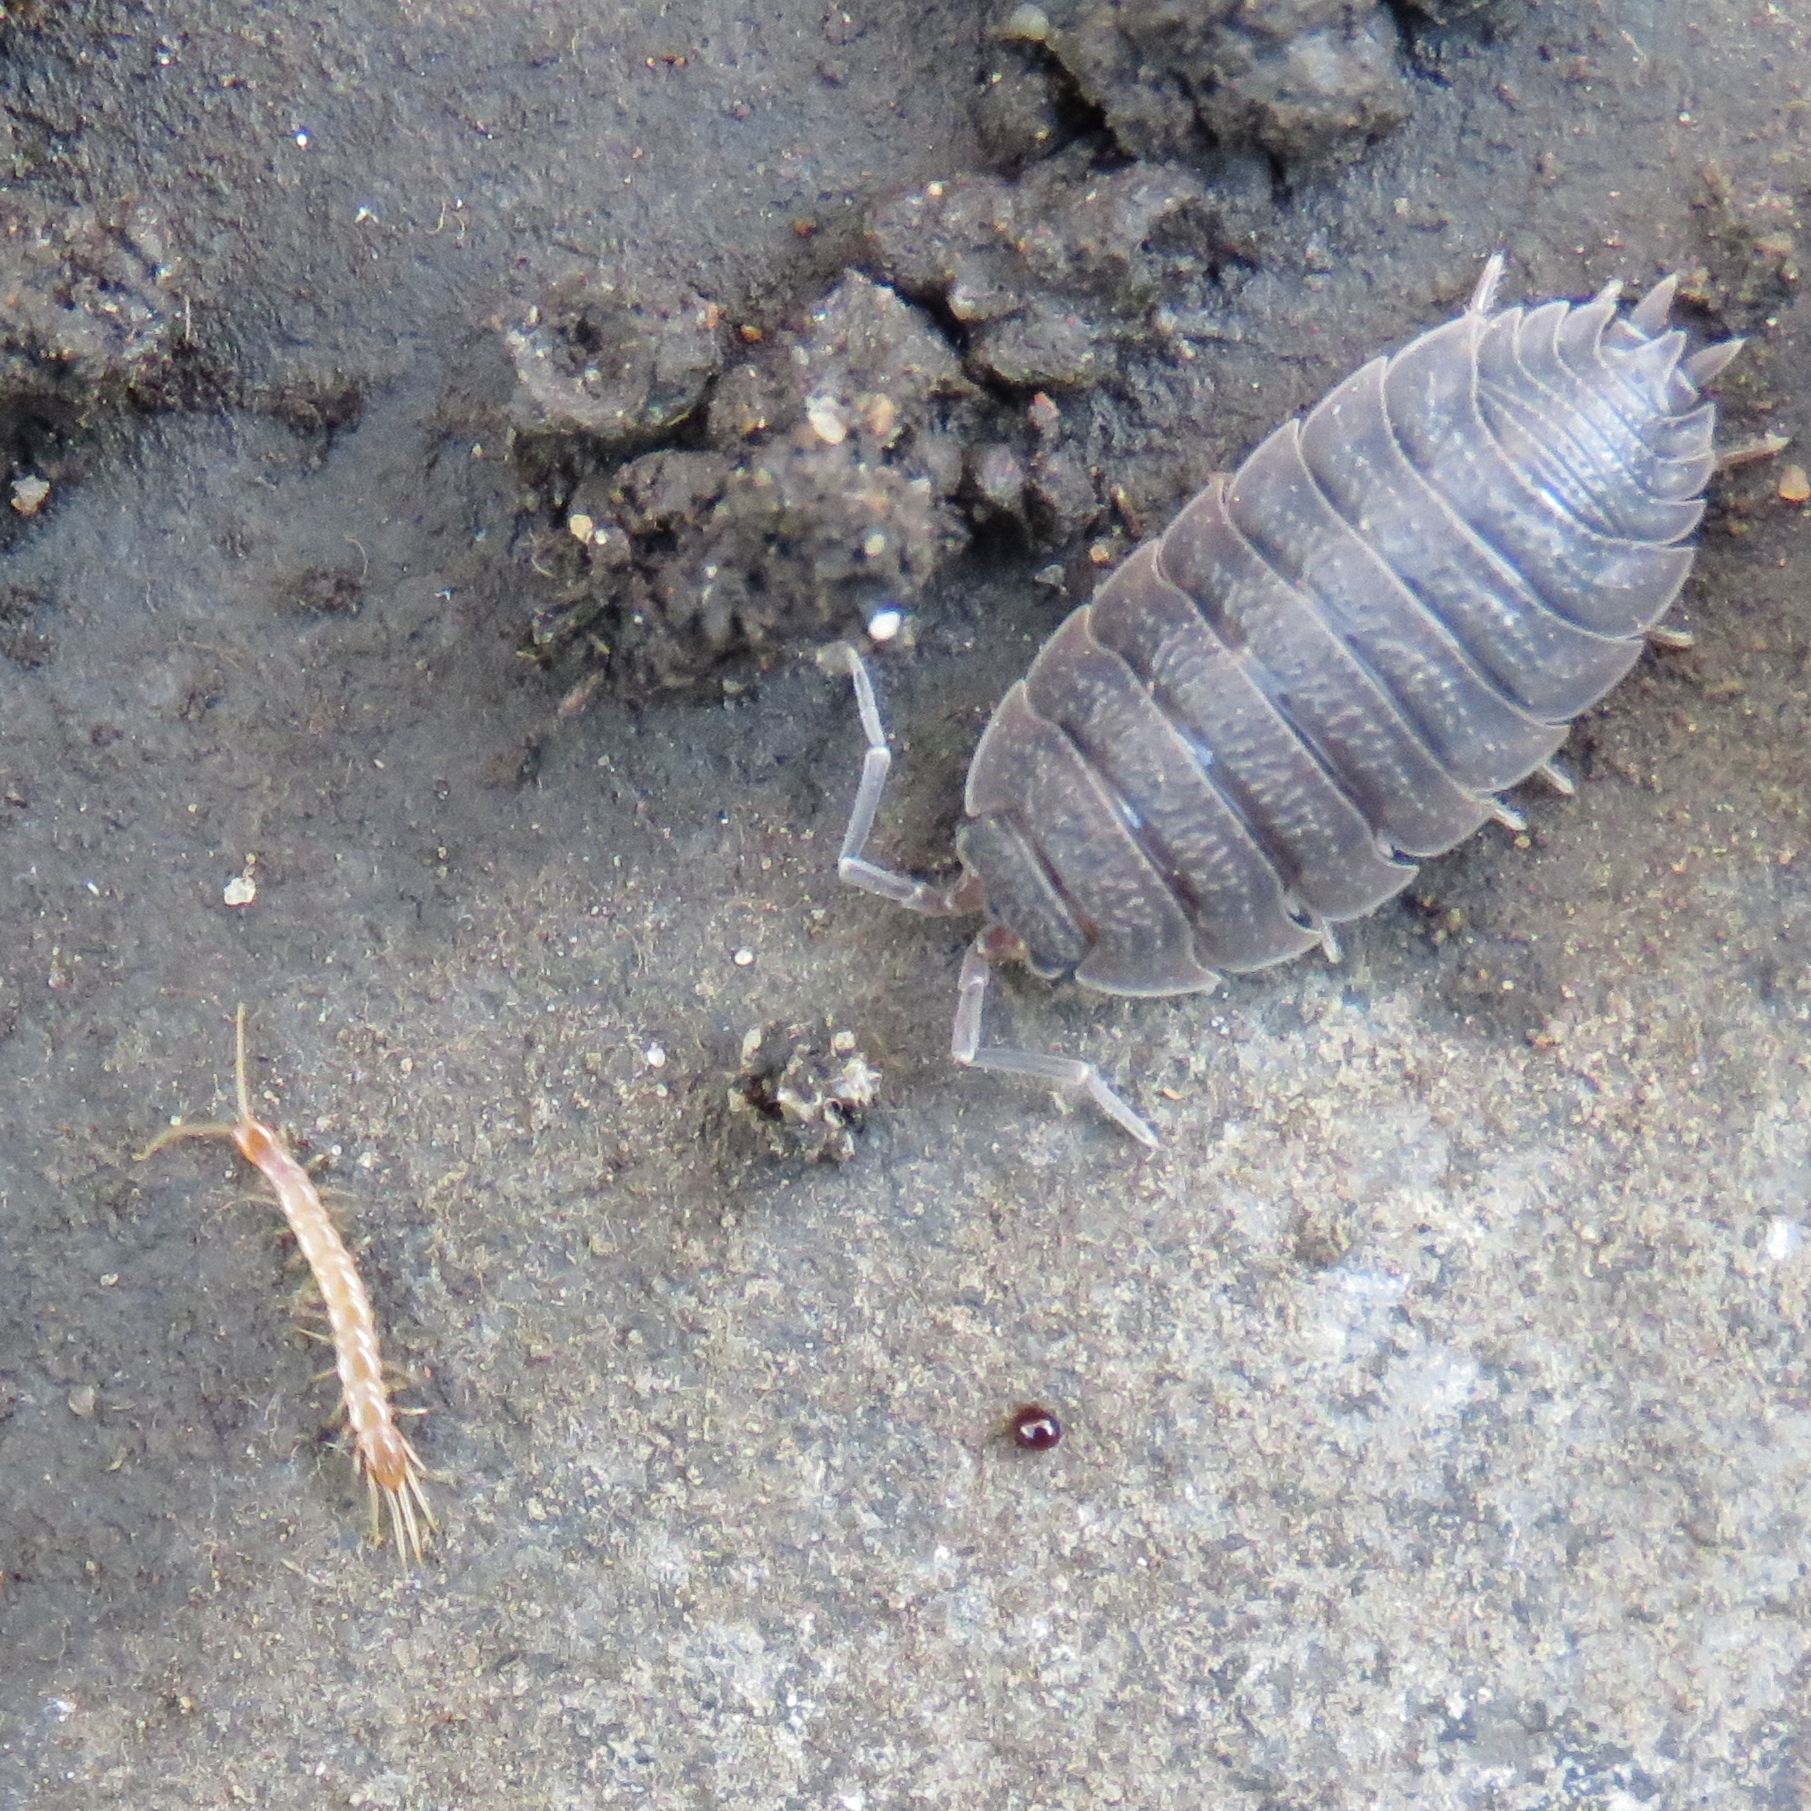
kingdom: Animalia
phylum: Arthropoda
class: Malacostraca
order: Isopoda
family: Porcellionidae
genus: Porcellio
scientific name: Porcellio scaber
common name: Common rough woodlouse
